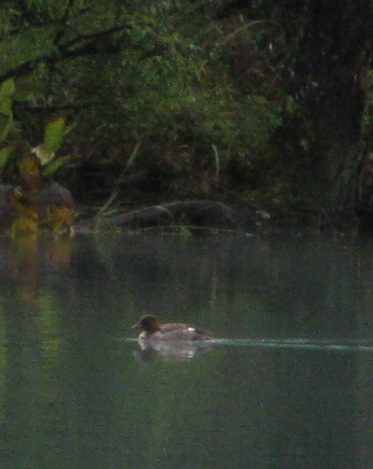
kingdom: Animalia
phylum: Chordata
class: Aves
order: Anseriformes
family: Anatidae
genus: Bucephala
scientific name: Bucephala clangula
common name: Common goldeneye
